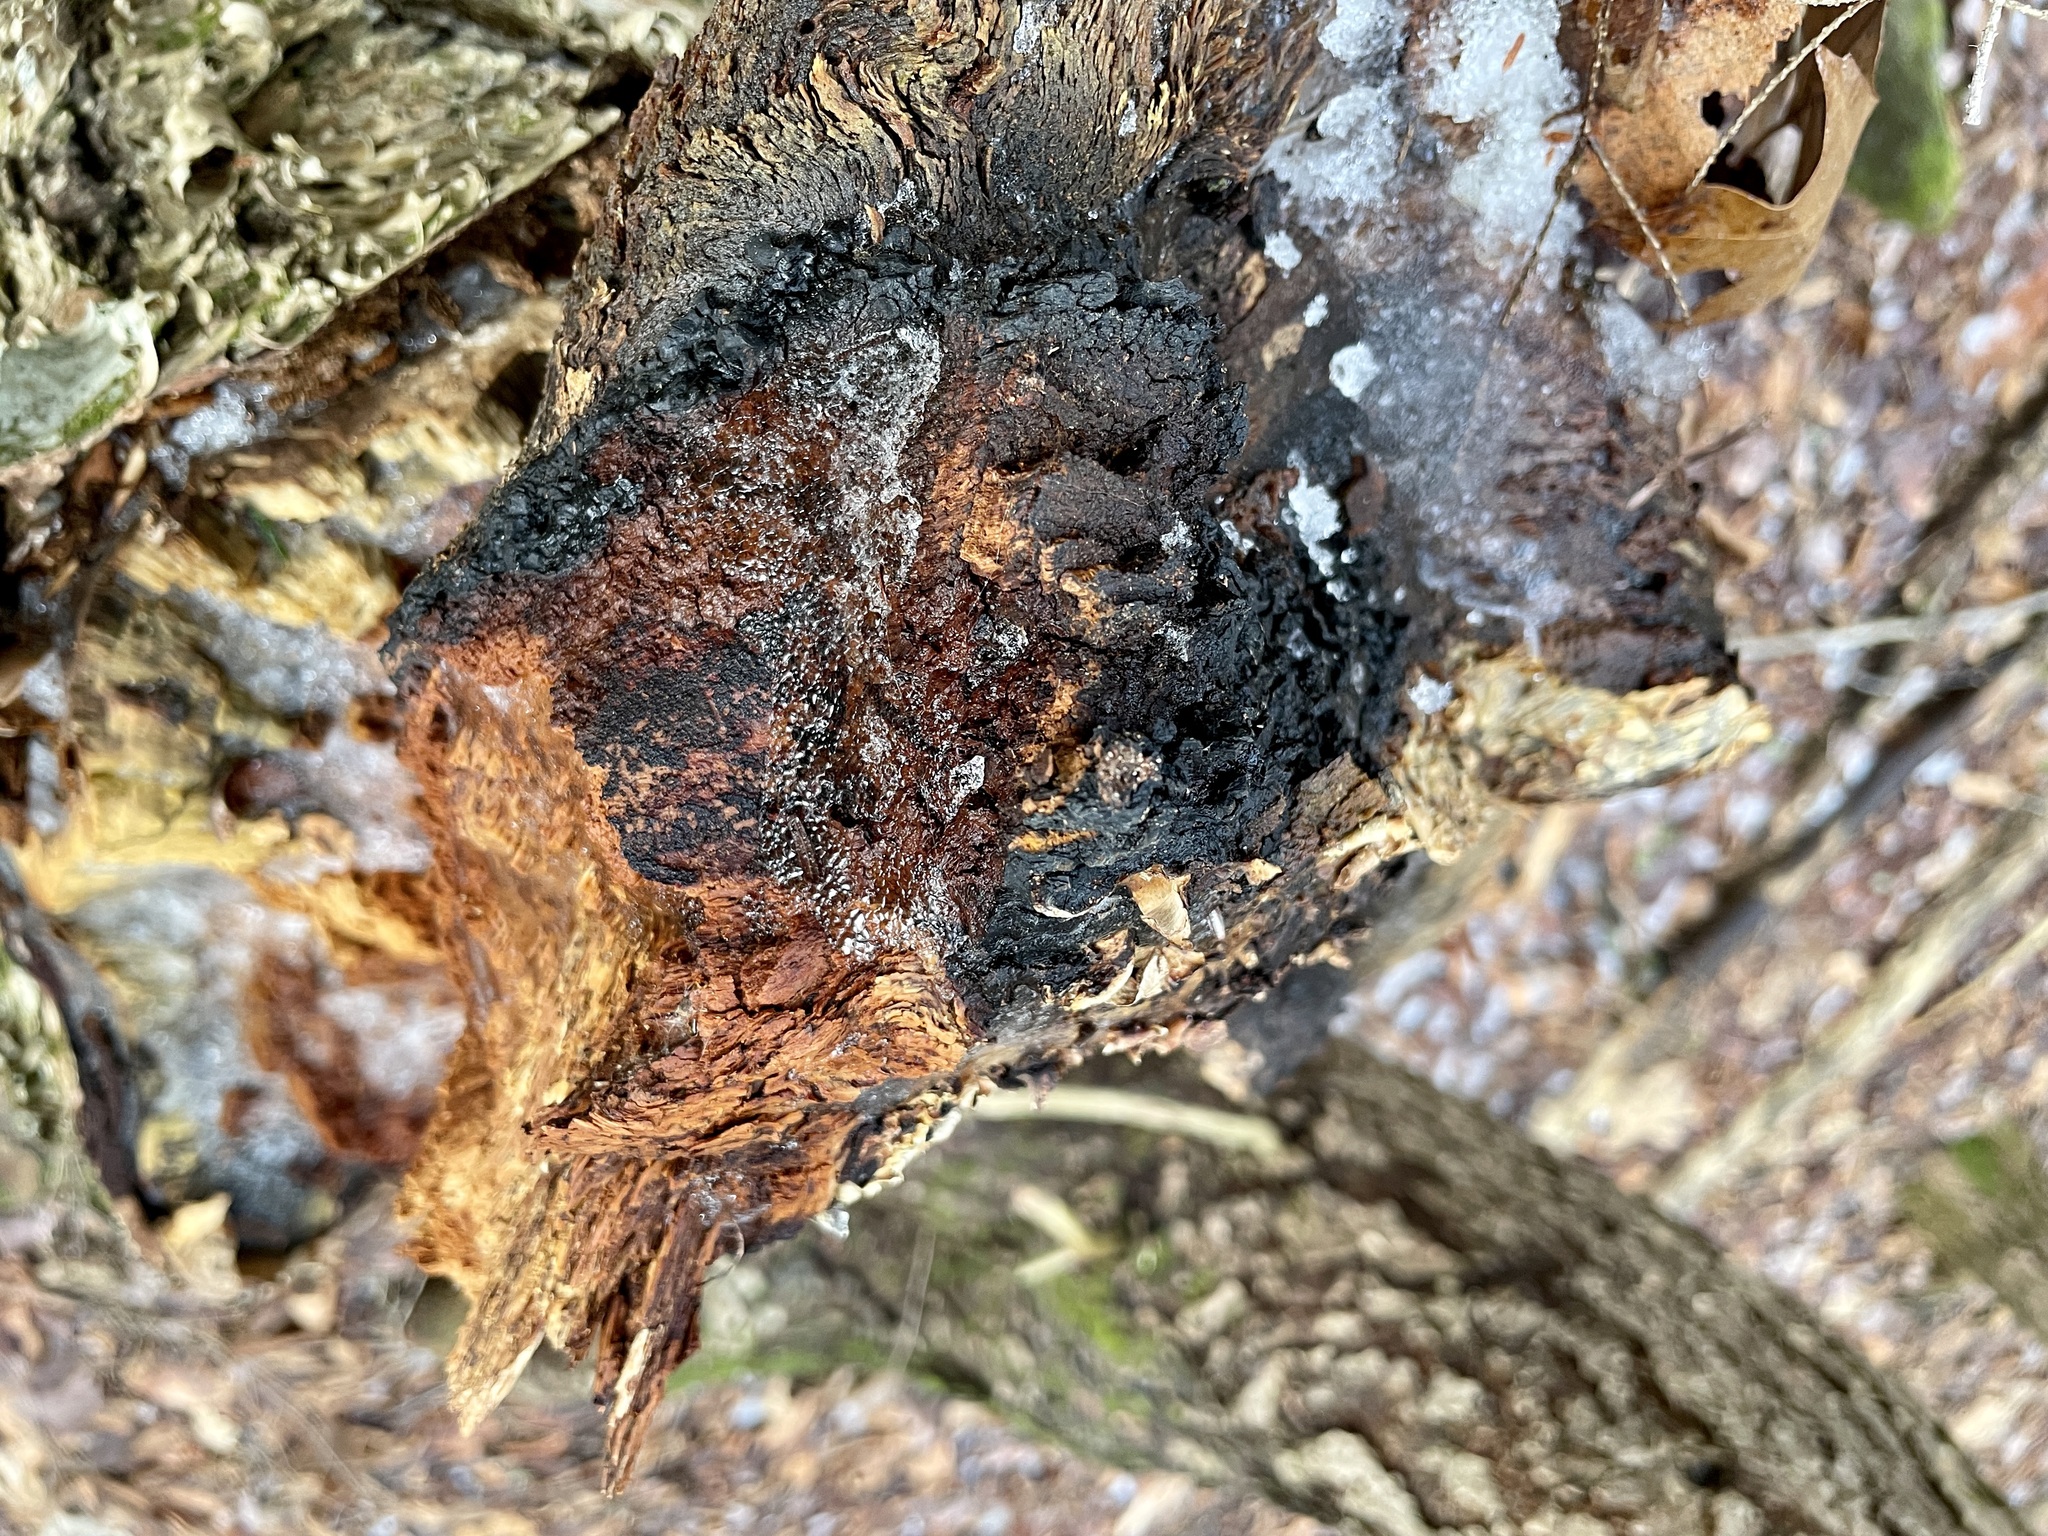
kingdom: Fungi
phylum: Basidiomycota
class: Agaricomycetes
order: Hymenochaetales
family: Hymenochaetaceae
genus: Inonotus
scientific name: Inonotus obliquus
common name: Chaga
